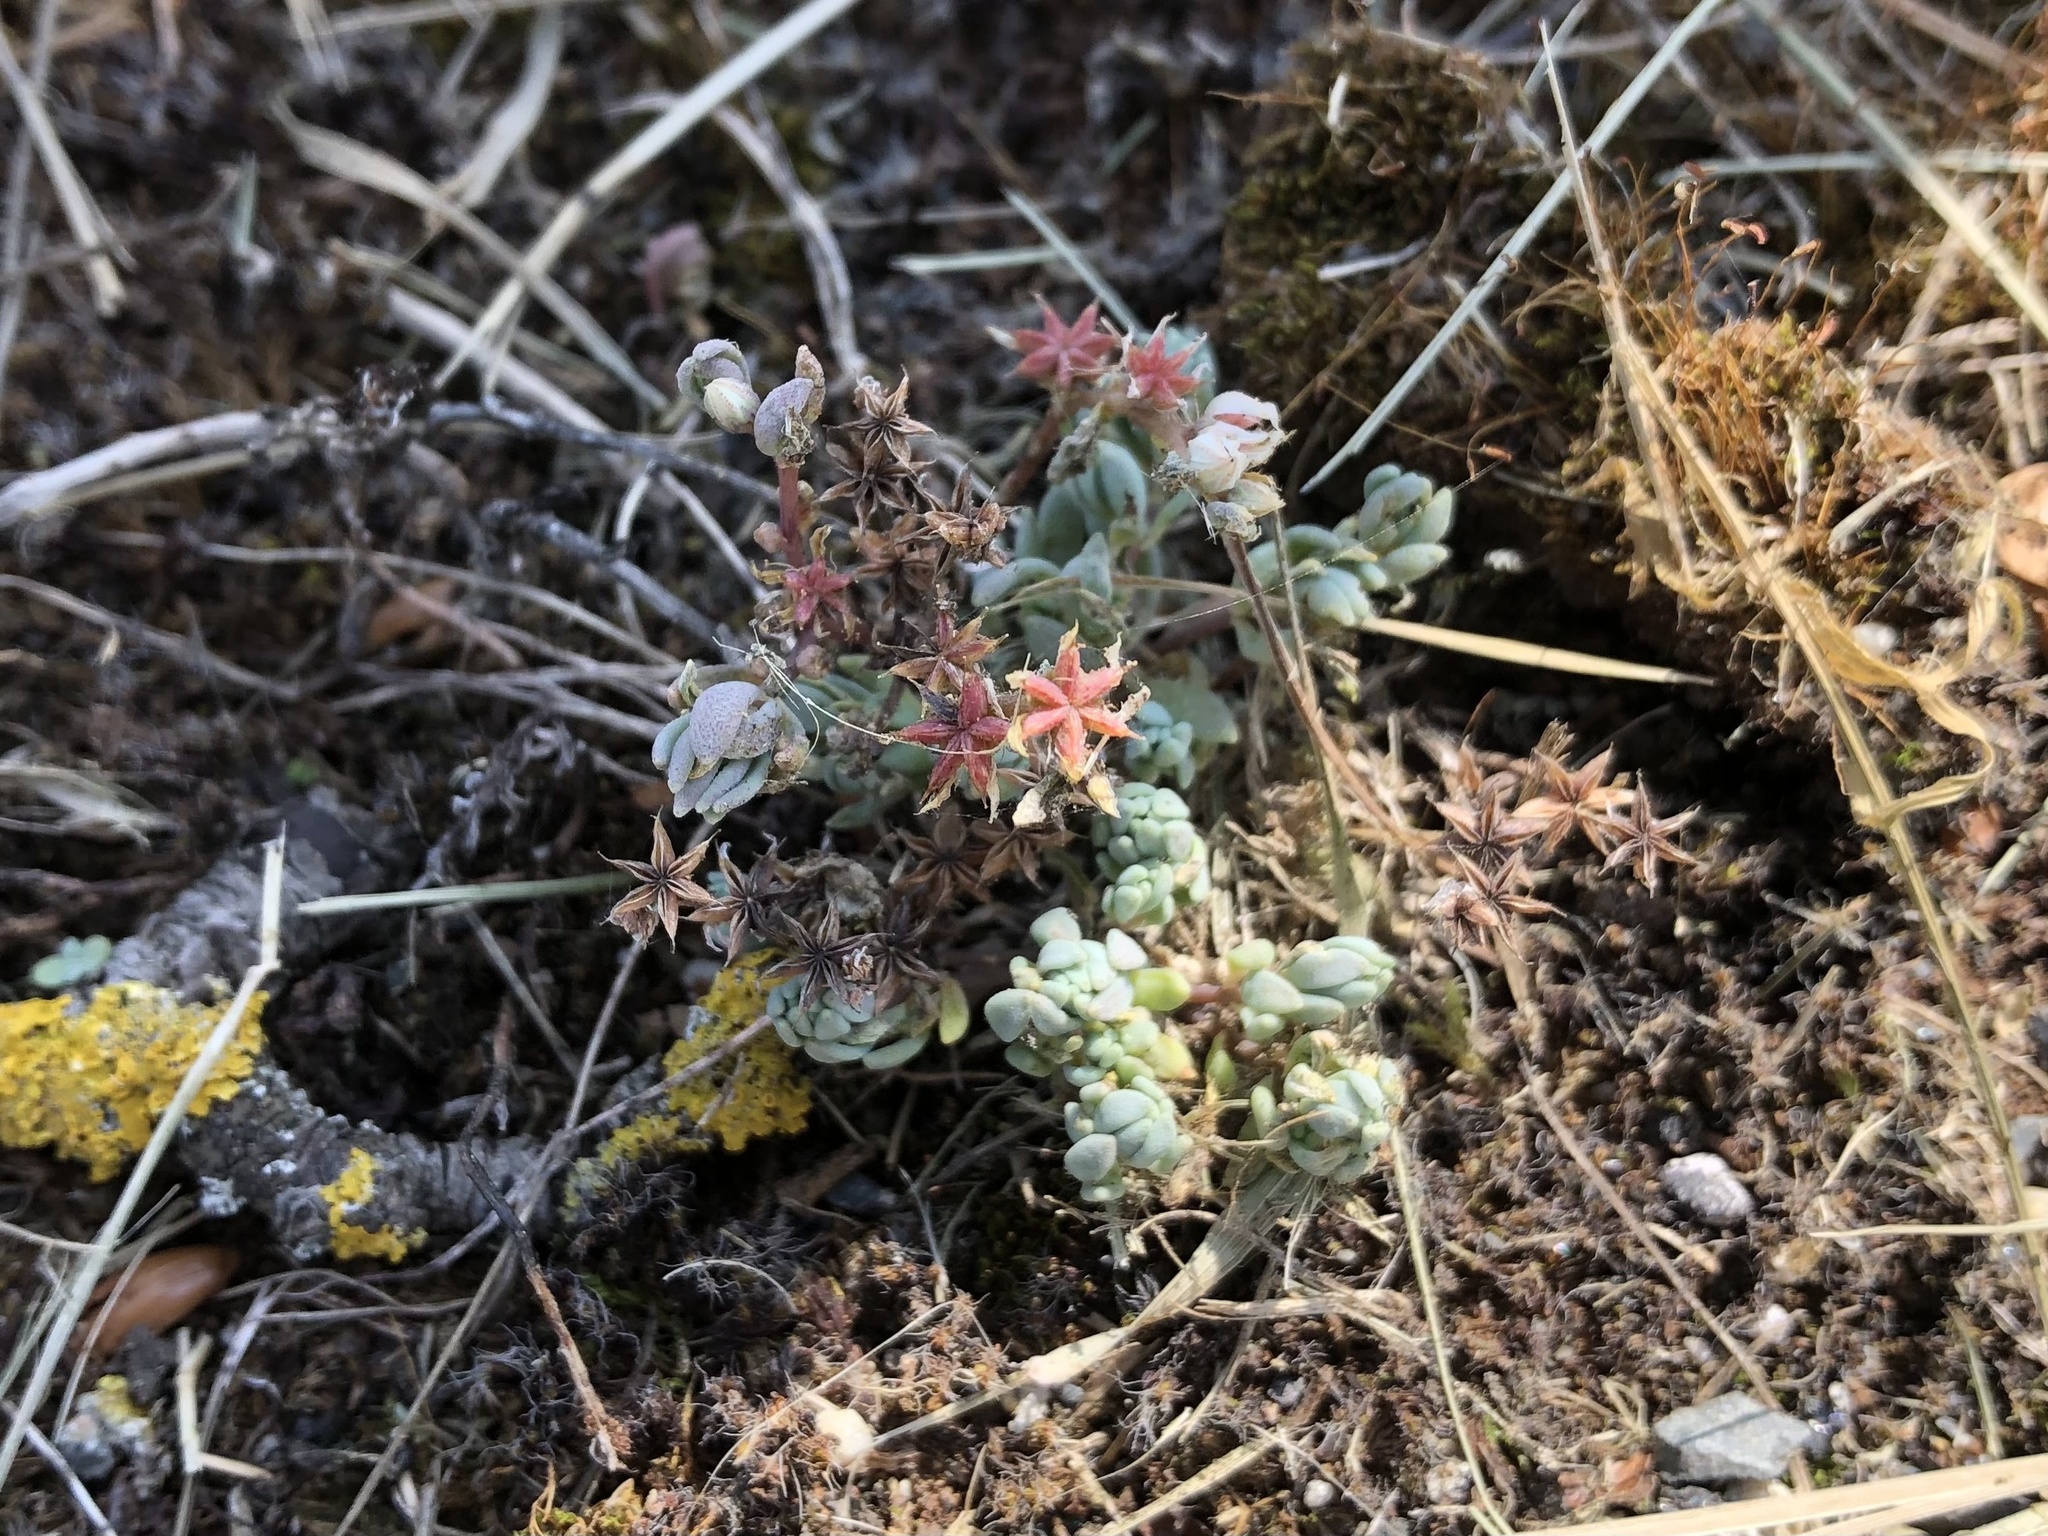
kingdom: Plantae
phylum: Tracheophyta
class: Magnoliopsida
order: Saxifragales
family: Crassulaceae
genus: Sedum
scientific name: Sedum hispanicum
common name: Spanish stonecrop
